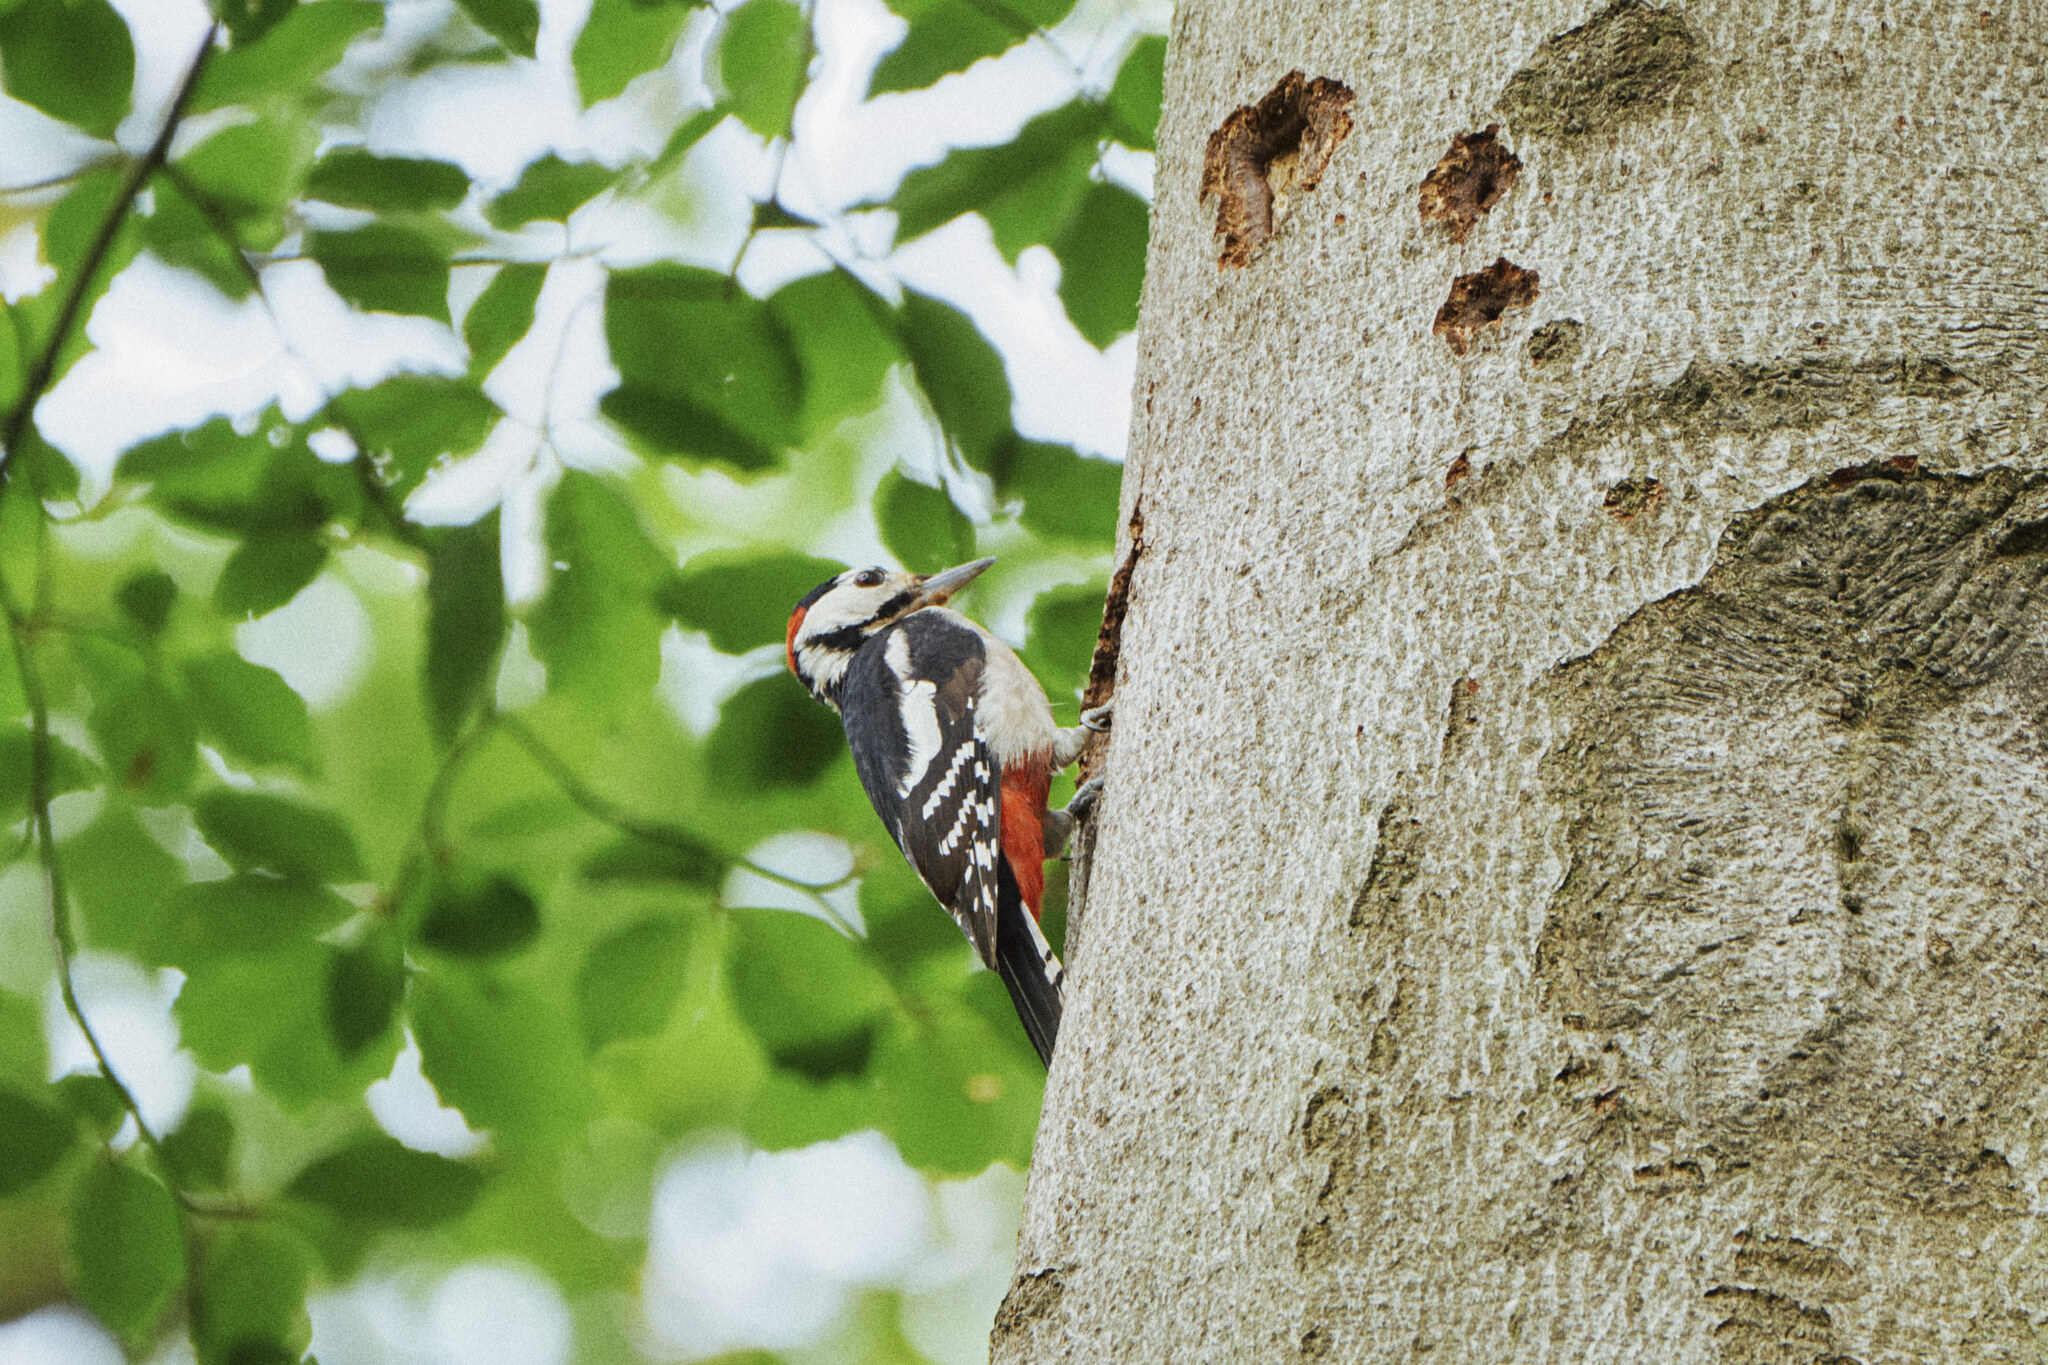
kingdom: Animalia
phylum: Chordata
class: Aves
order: Piciformes
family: Picidae
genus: Dendrocopos
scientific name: Dendrocopos major
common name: Great spotted woodpecker
